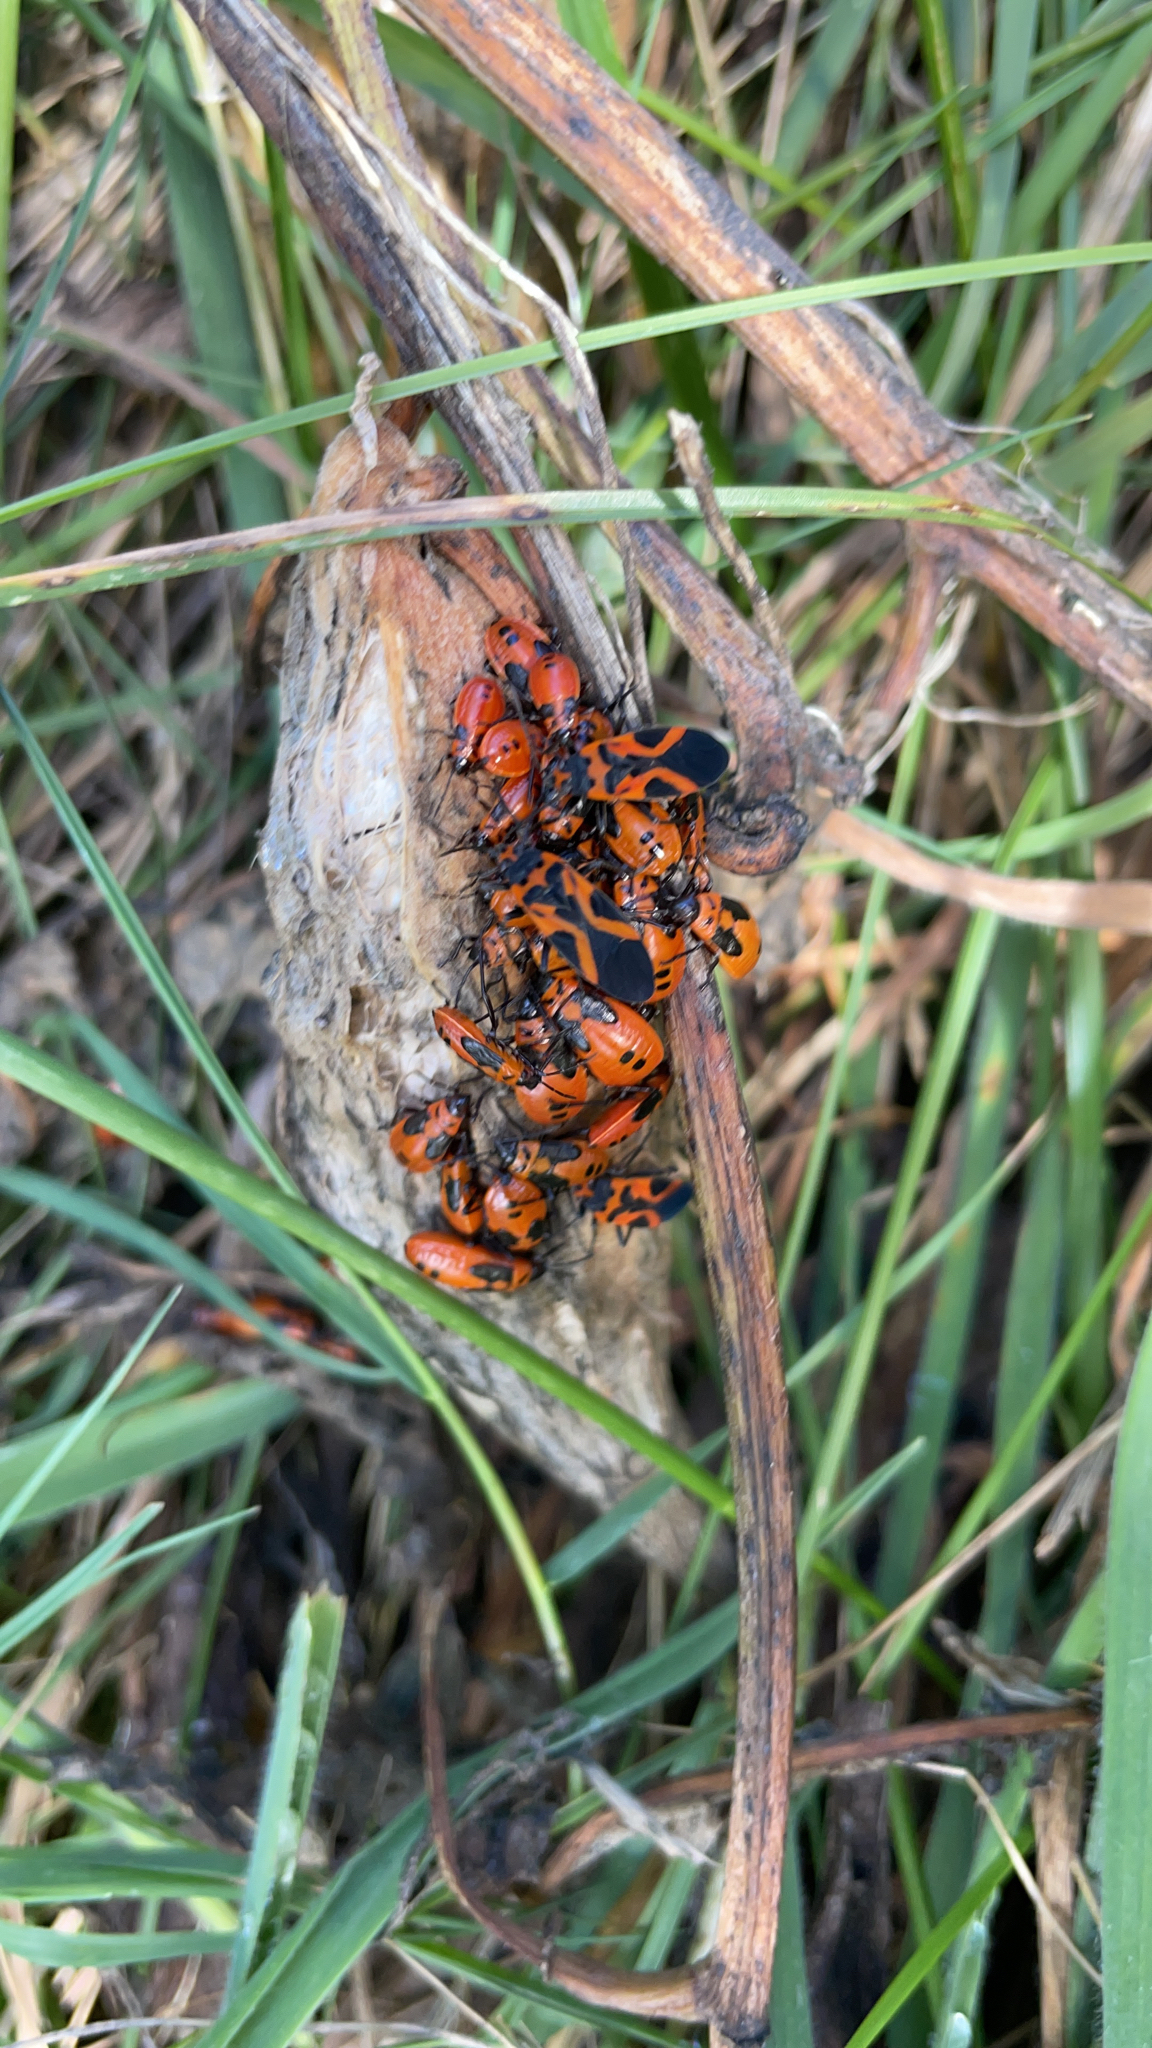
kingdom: Animalia
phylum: Arthropoda
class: Insecta
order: Hemiptera
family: Lygaeidae
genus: Lygaeus
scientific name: Lygaeus turcicus
